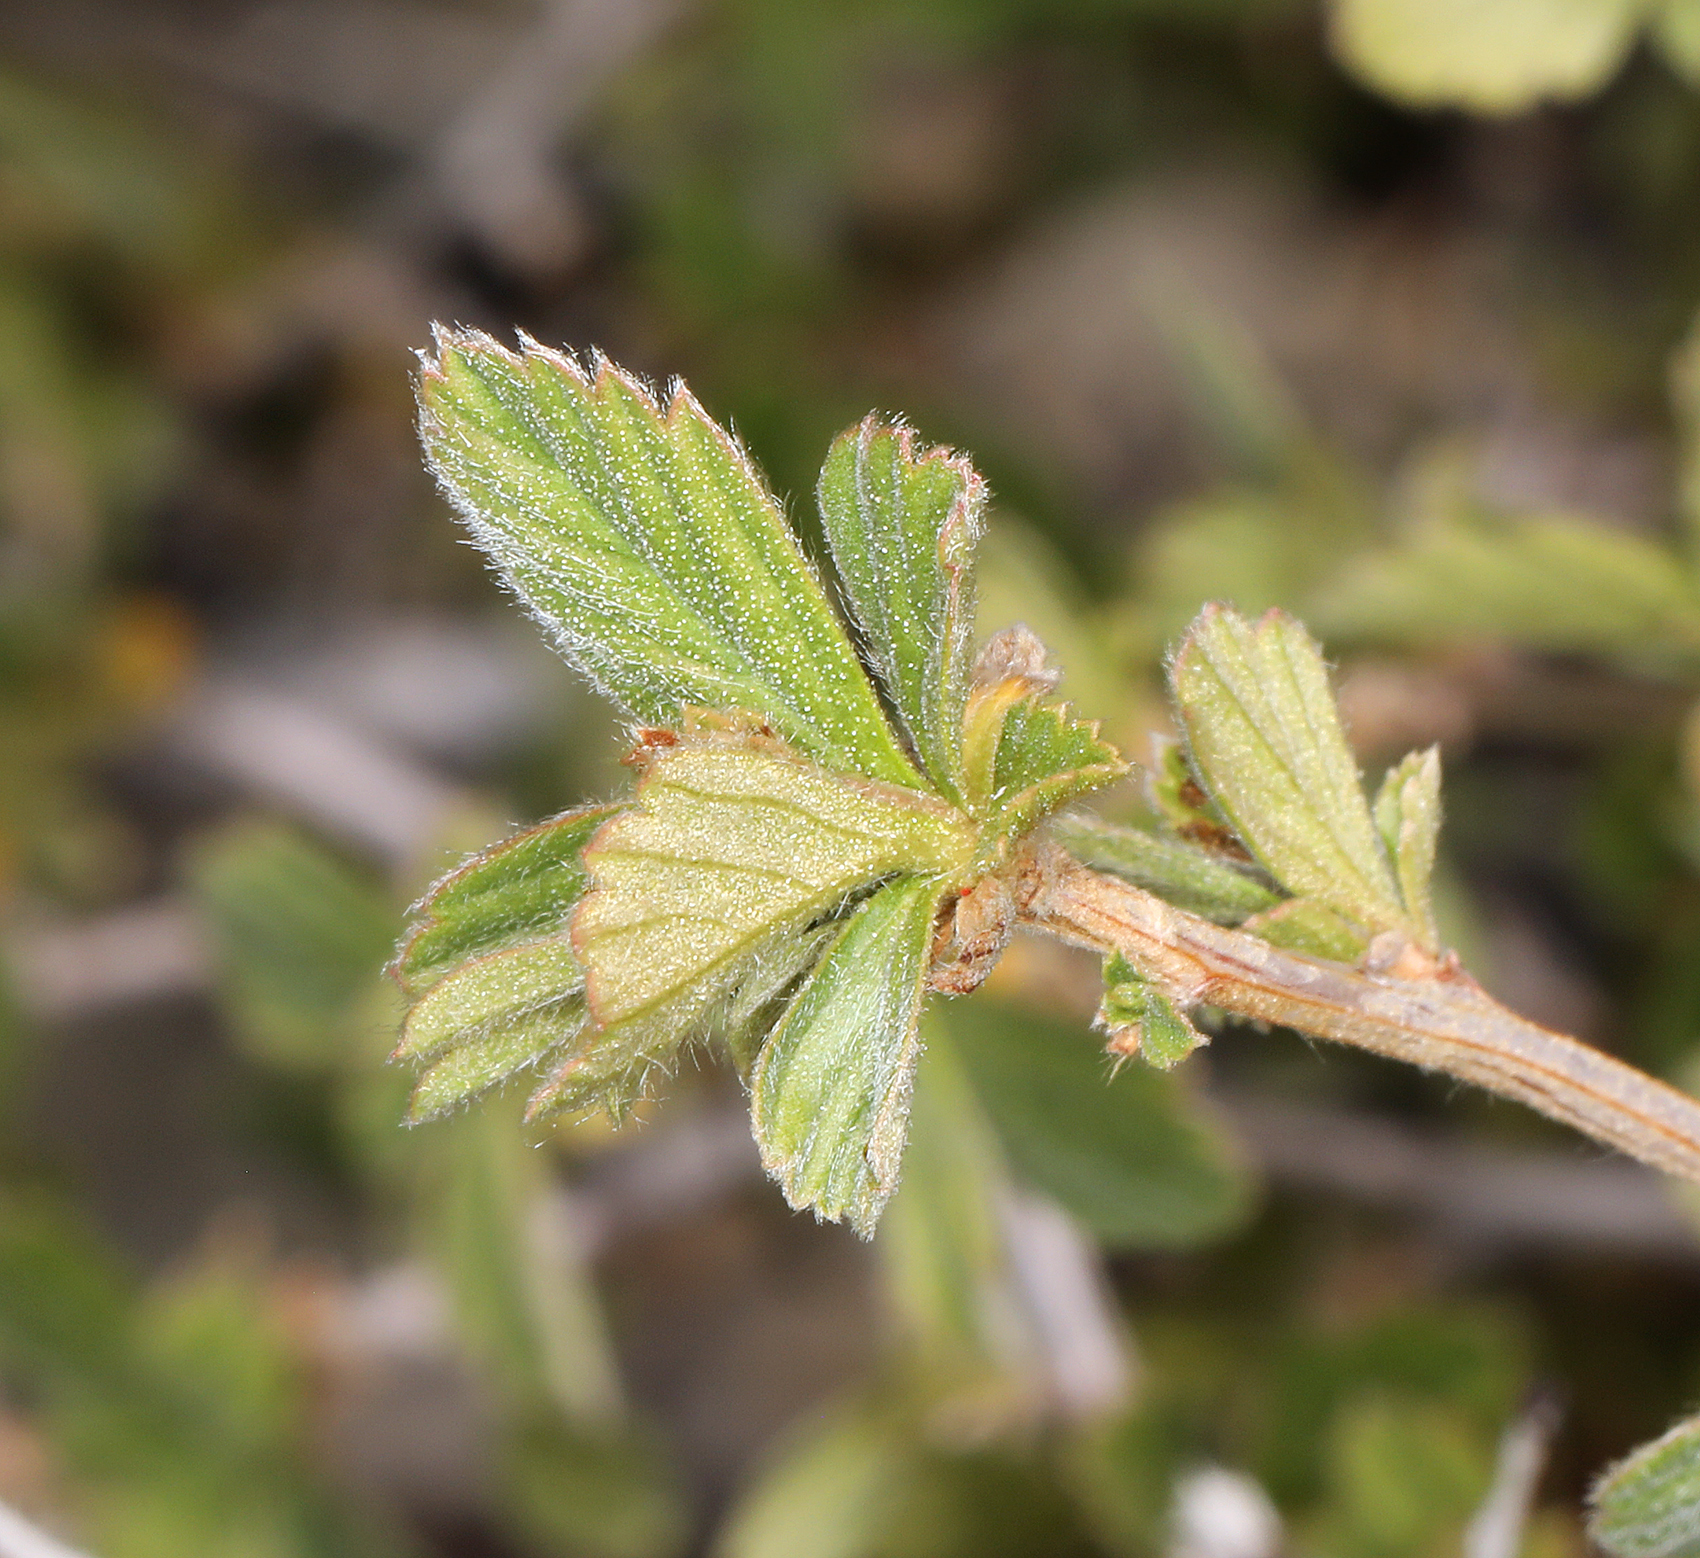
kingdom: Plantae
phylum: Tracheophyta
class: Magnoliopsida
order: Rosales
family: Rosaceae
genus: Holodiscus
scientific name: Holodiscus discolor
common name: Oceanspray
